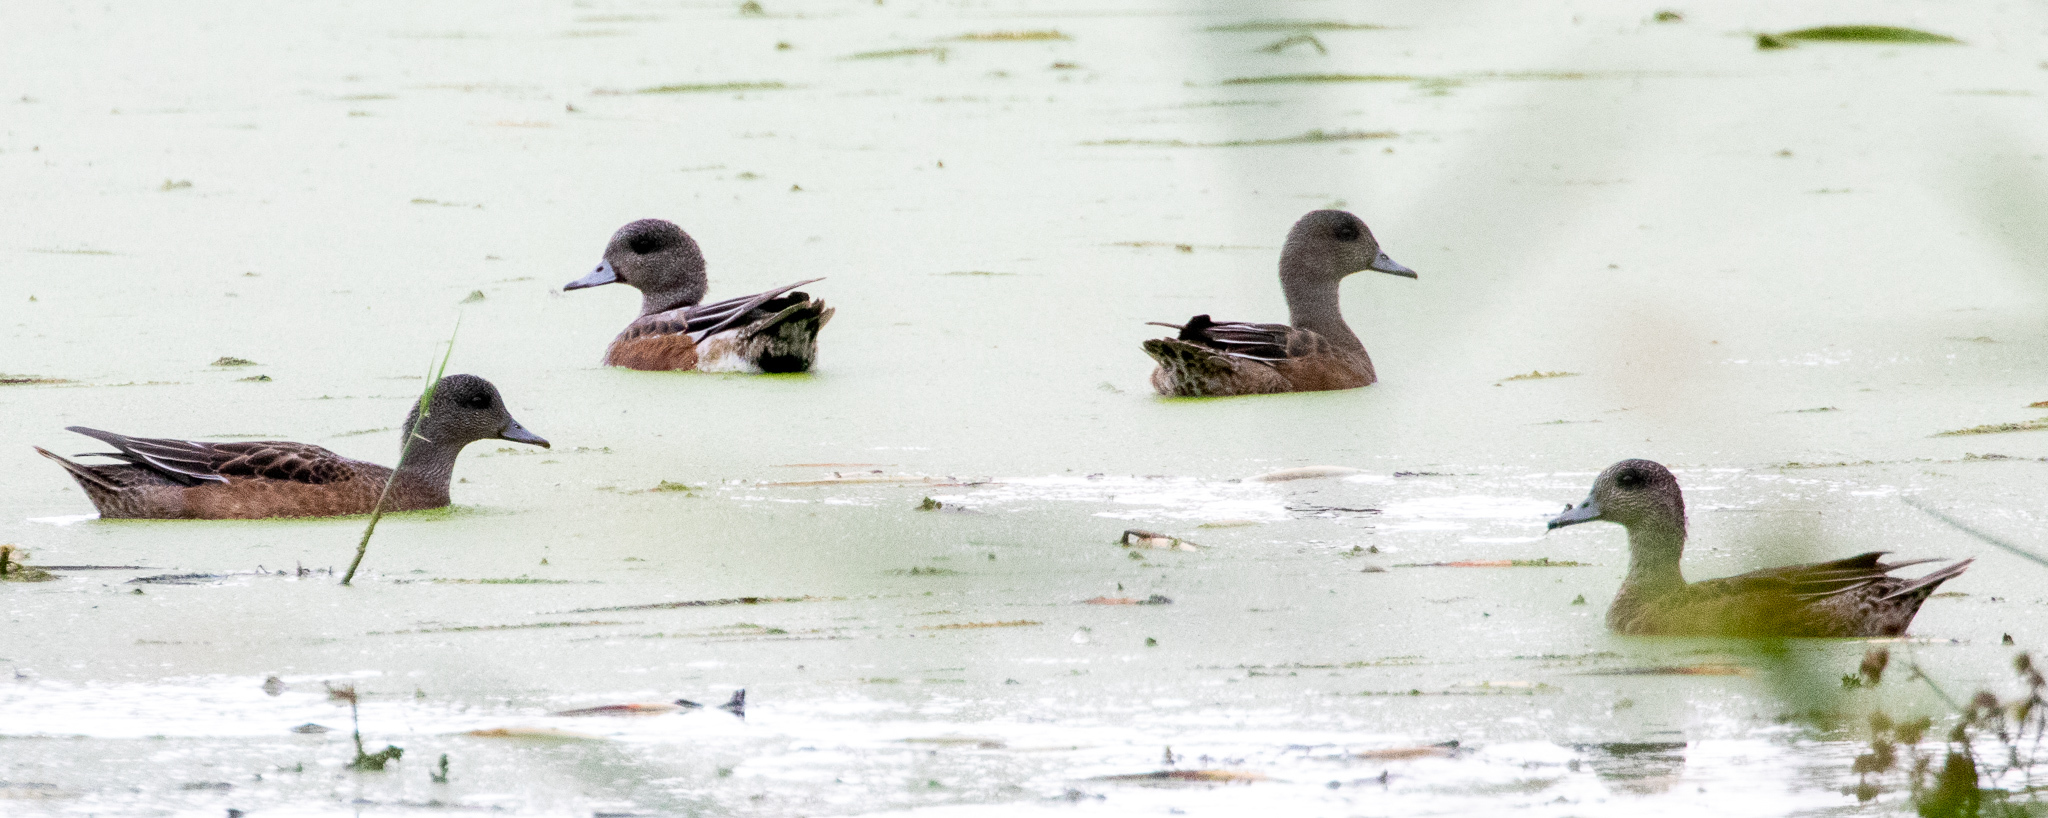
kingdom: Animalia
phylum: Chordata
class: Aves
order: Anseriformes
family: Anatidae
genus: Mareca
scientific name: Mareca americana
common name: American wigeon
